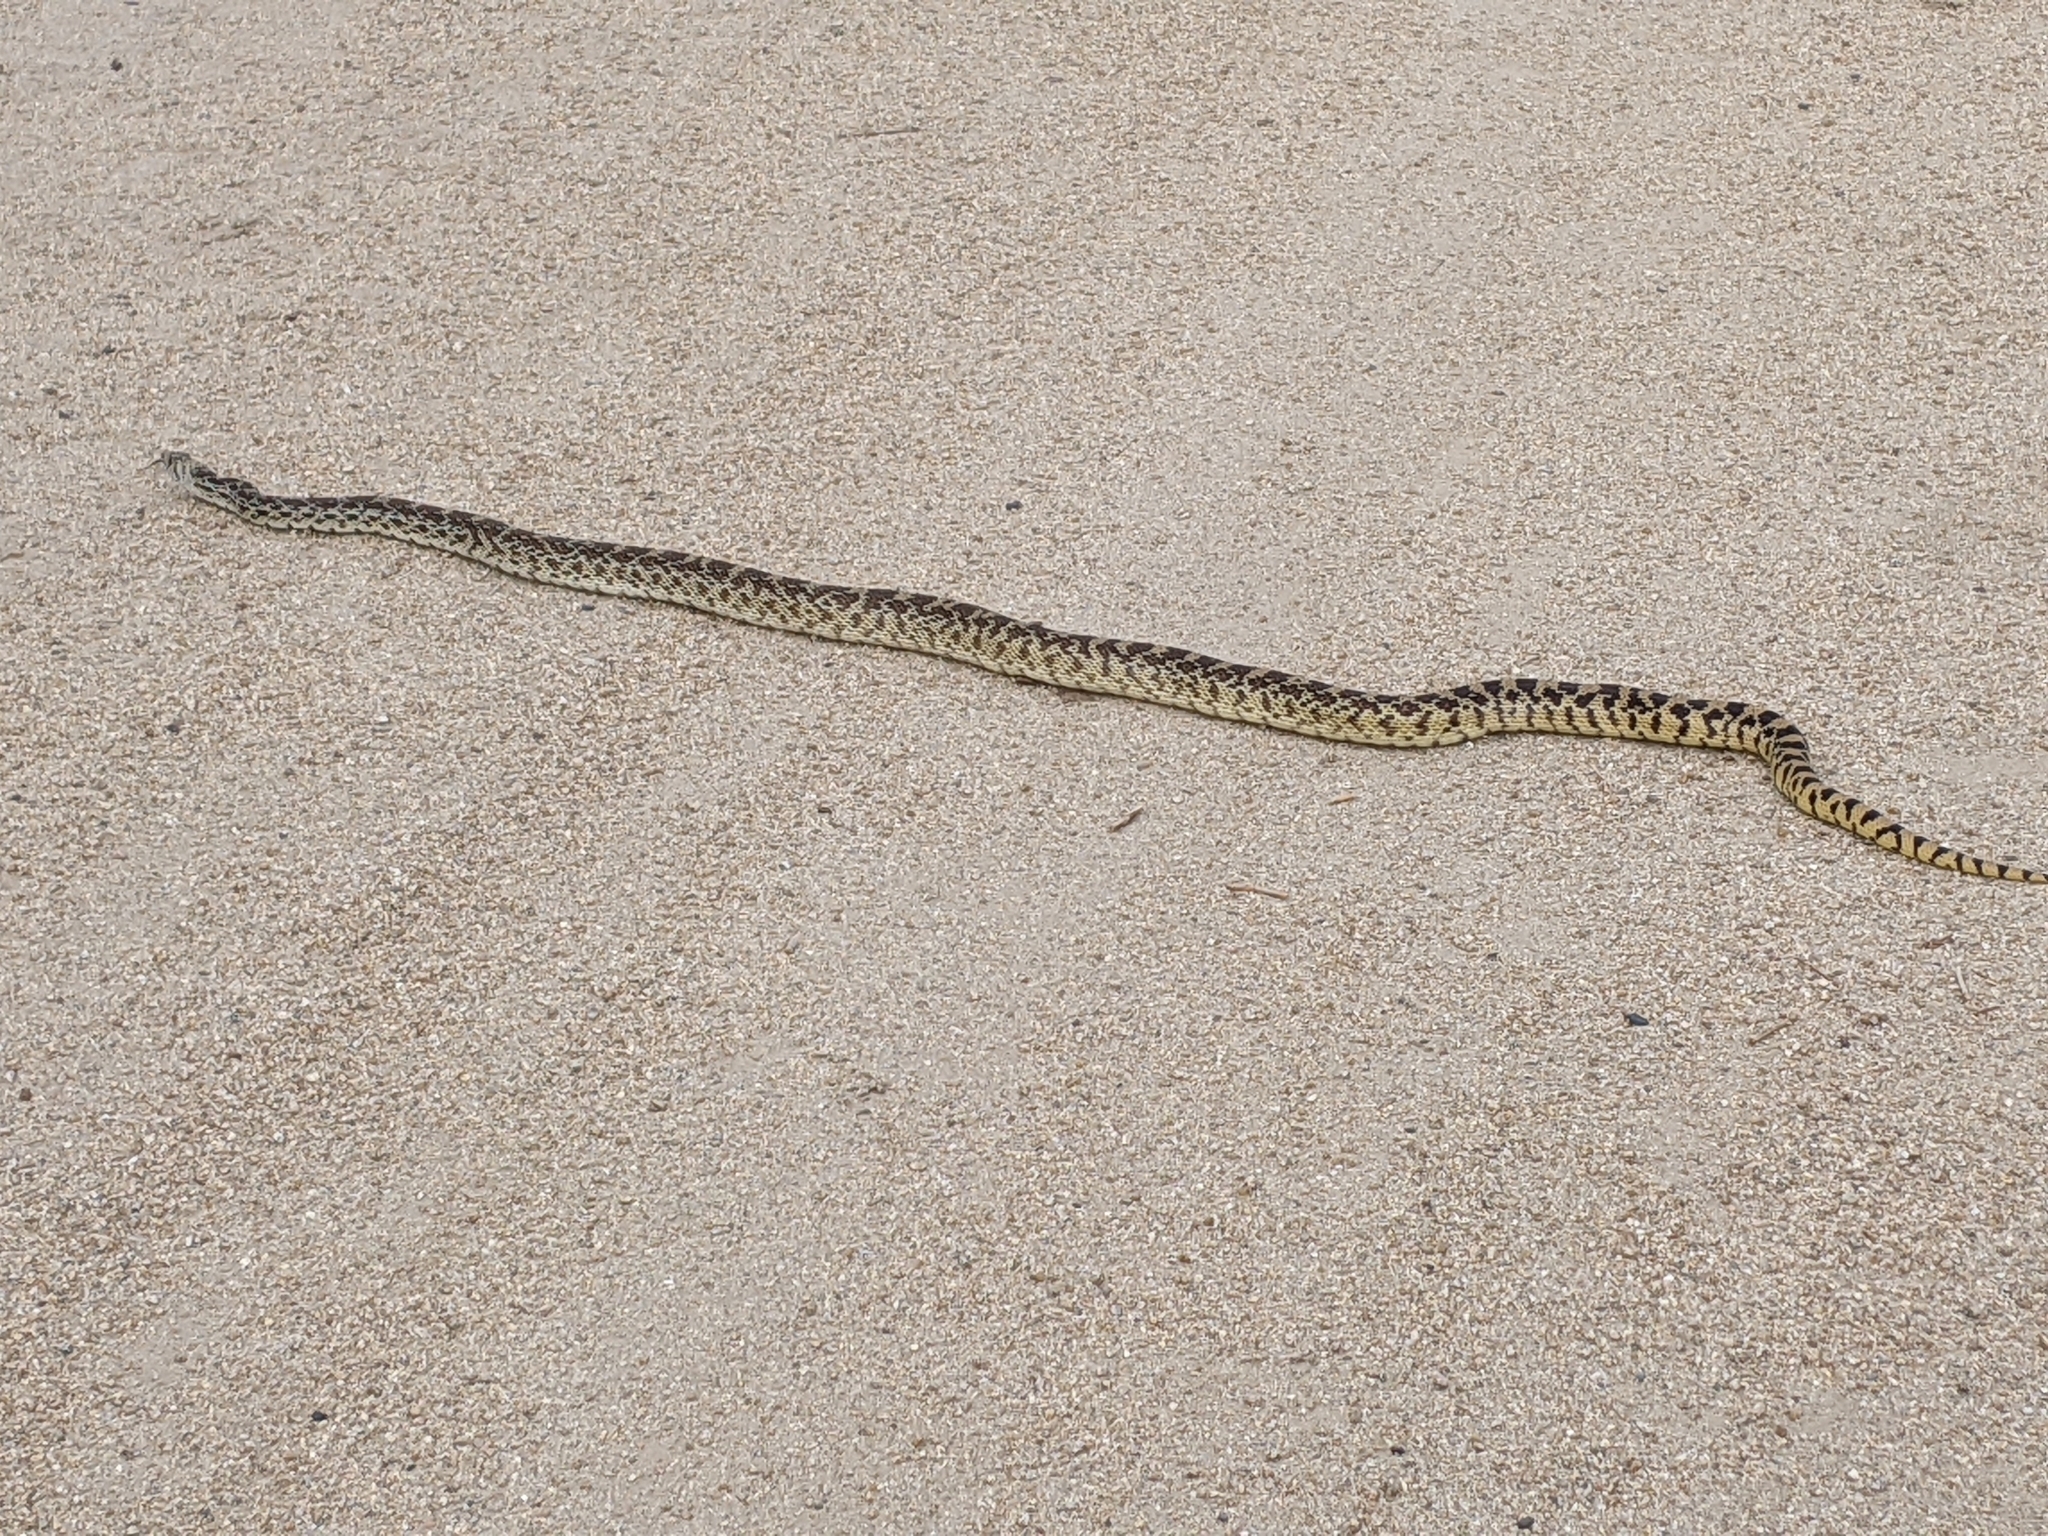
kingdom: Animalia
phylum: Chordata
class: Squamata
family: Colubridae
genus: Pituophis
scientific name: Pituophis catenifer
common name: Gopher snake
